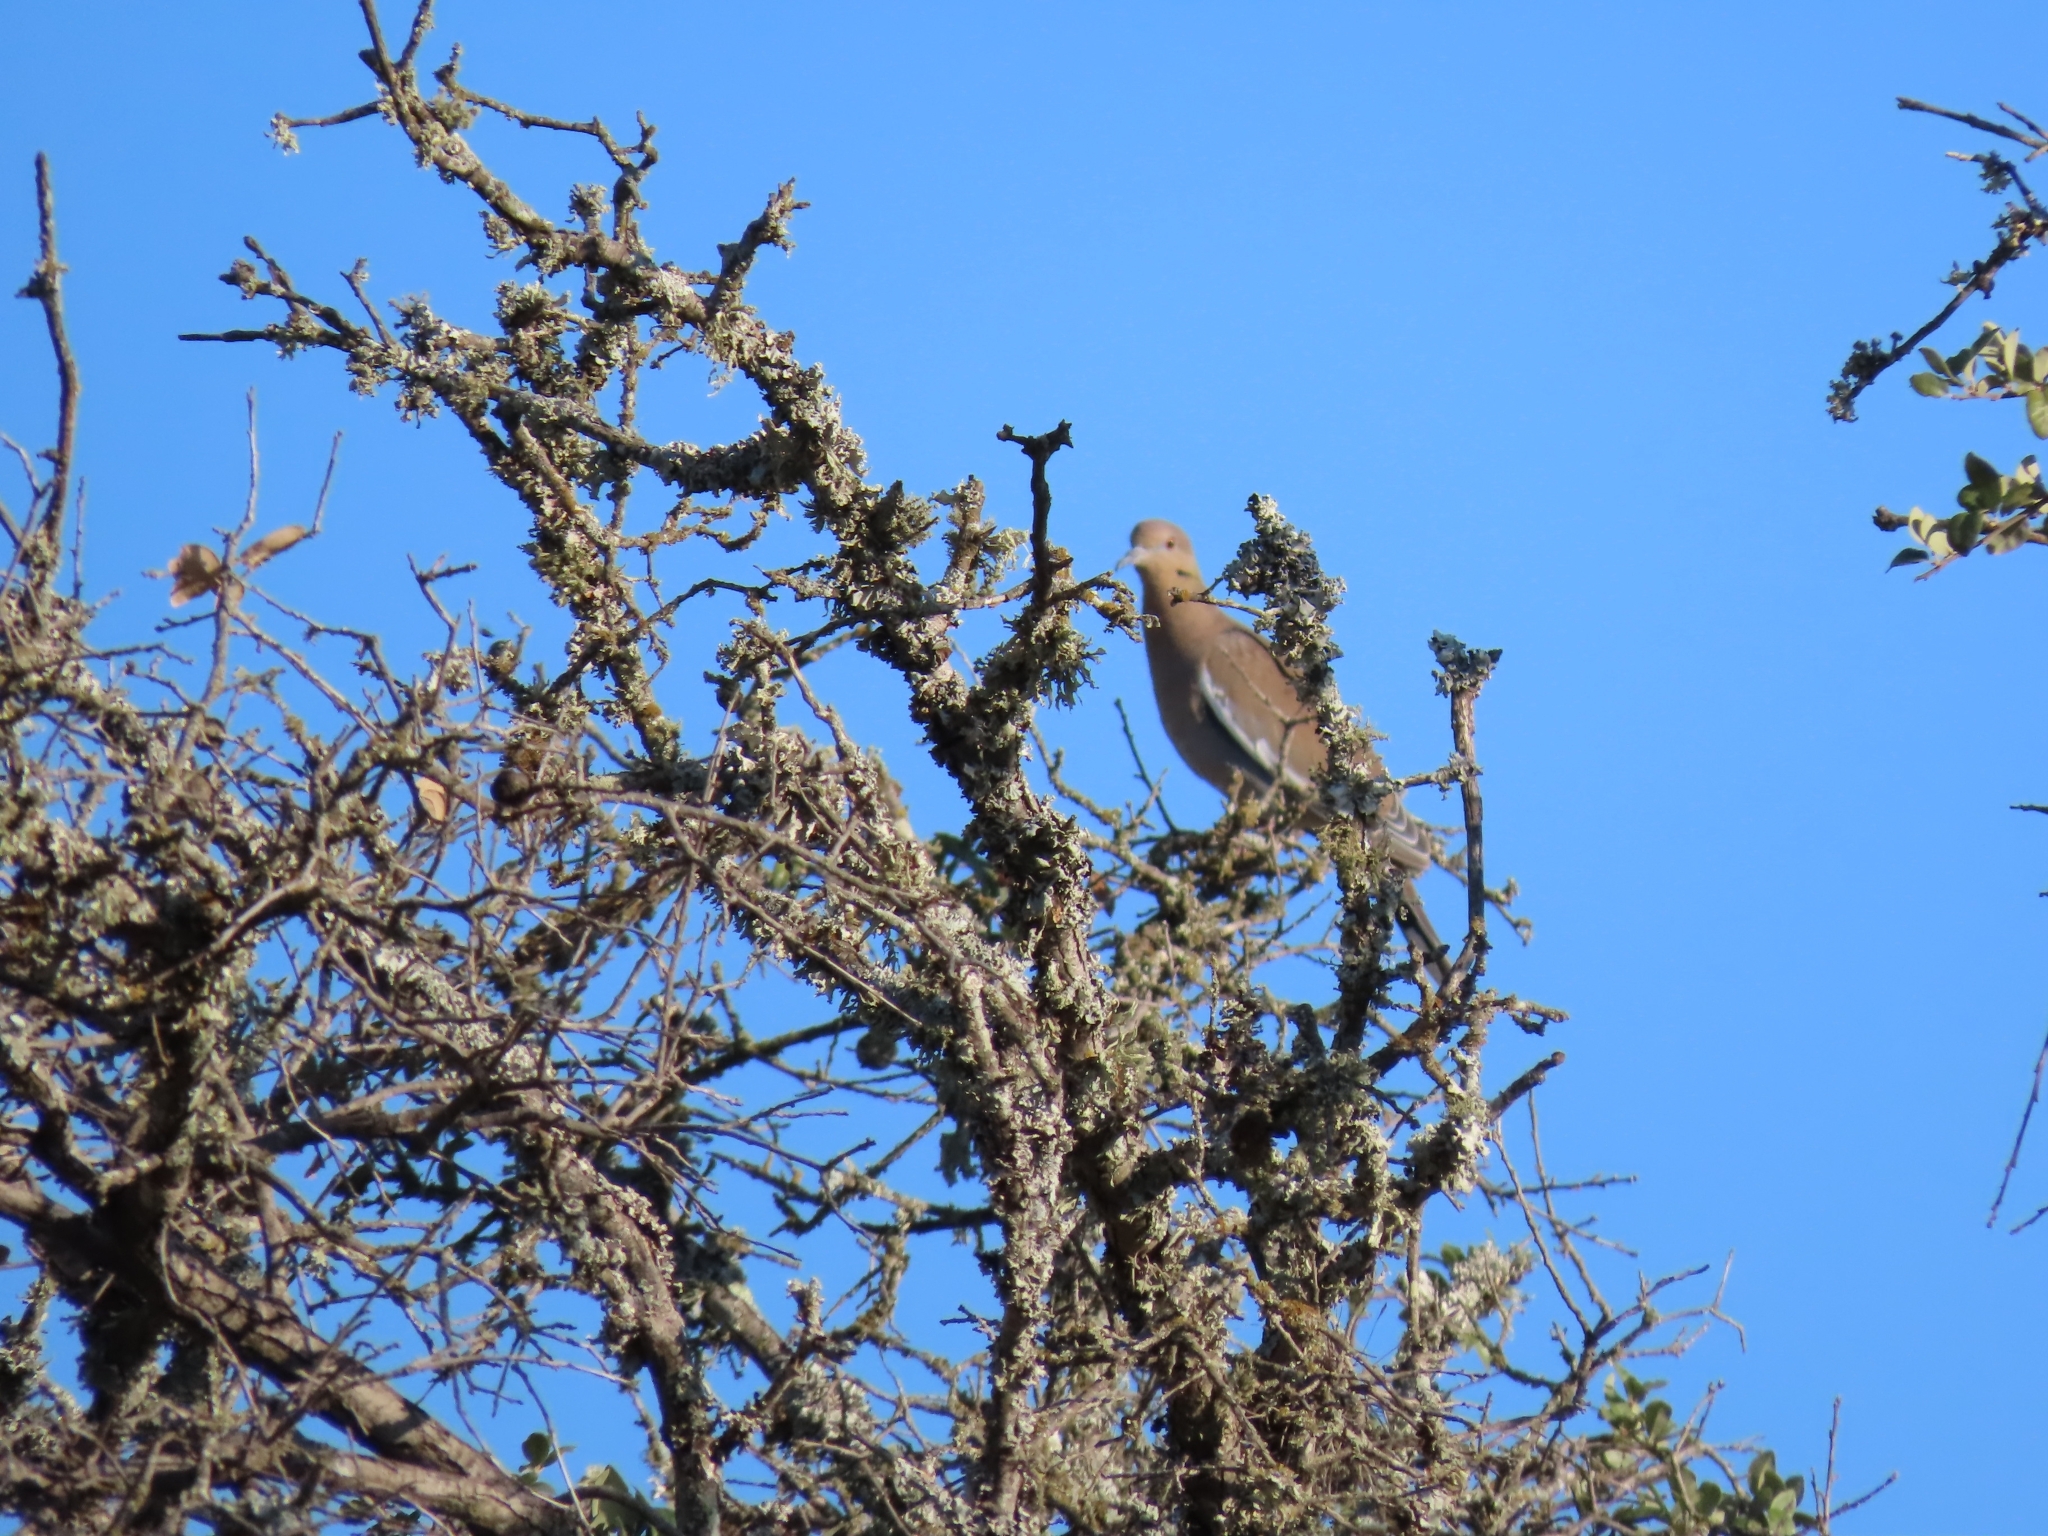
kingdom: Animalia
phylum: Chordata
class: Aves
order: Columbiformes
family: Columbidae
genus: Zenaida
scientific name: Zenaida asiatica
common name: White-winged dove
